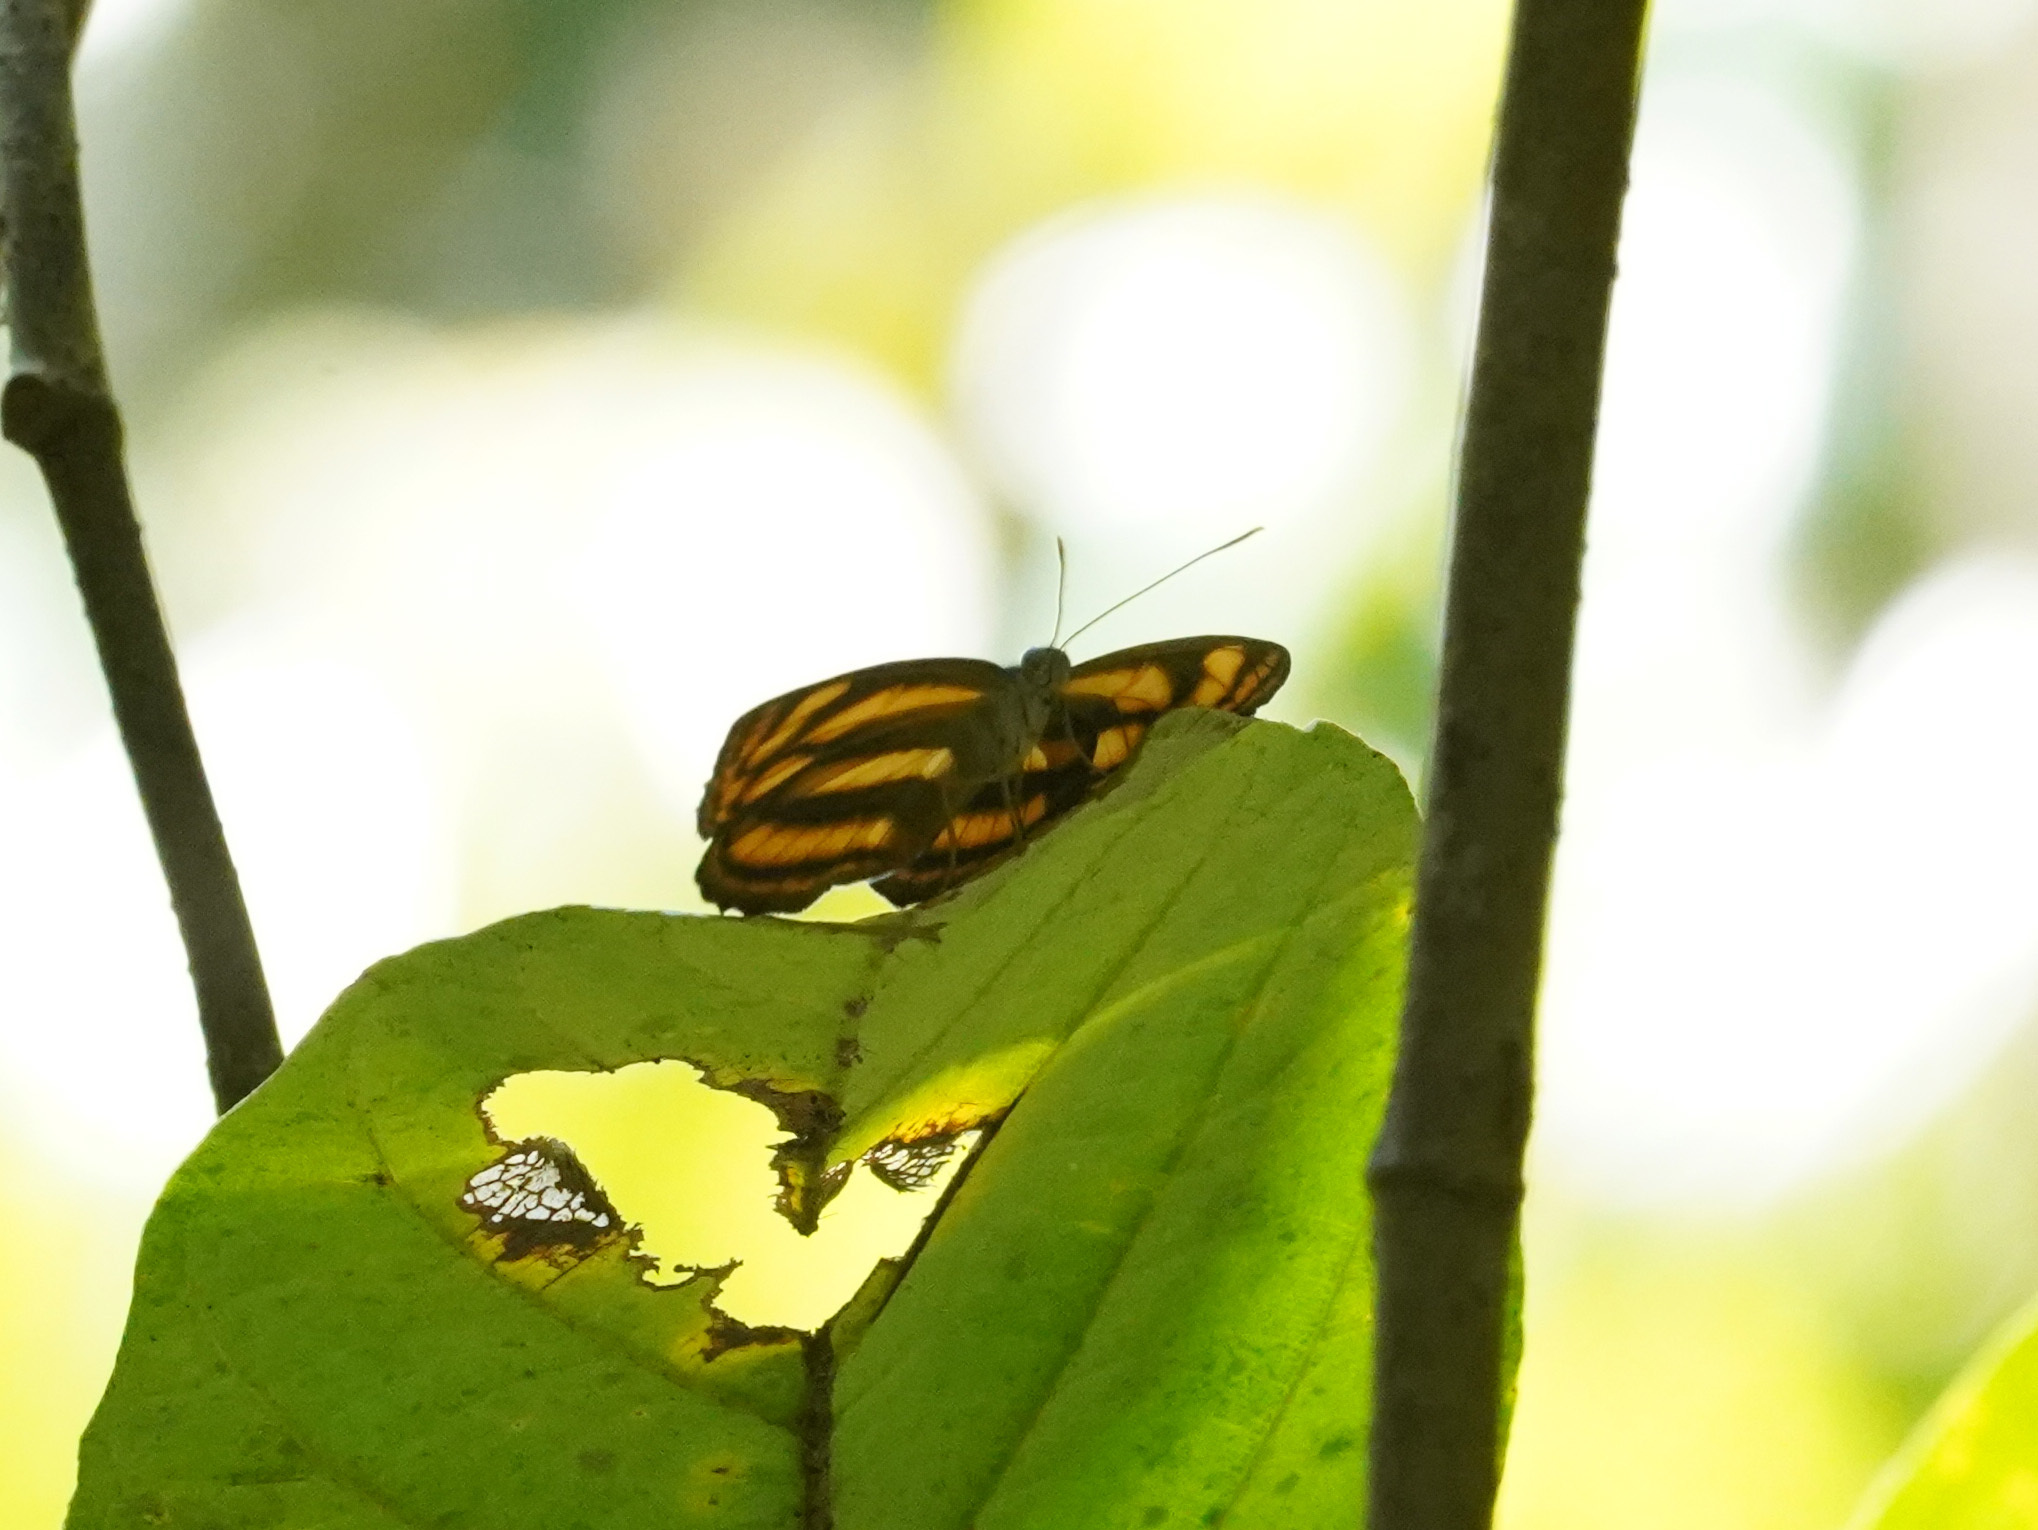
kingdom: Animalia
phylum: Arthropoda
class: Insecta
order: Lepidoptera
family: Nymphalidae
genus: Lasippa
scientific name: Lasippa tiga
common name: Malayan lascar
